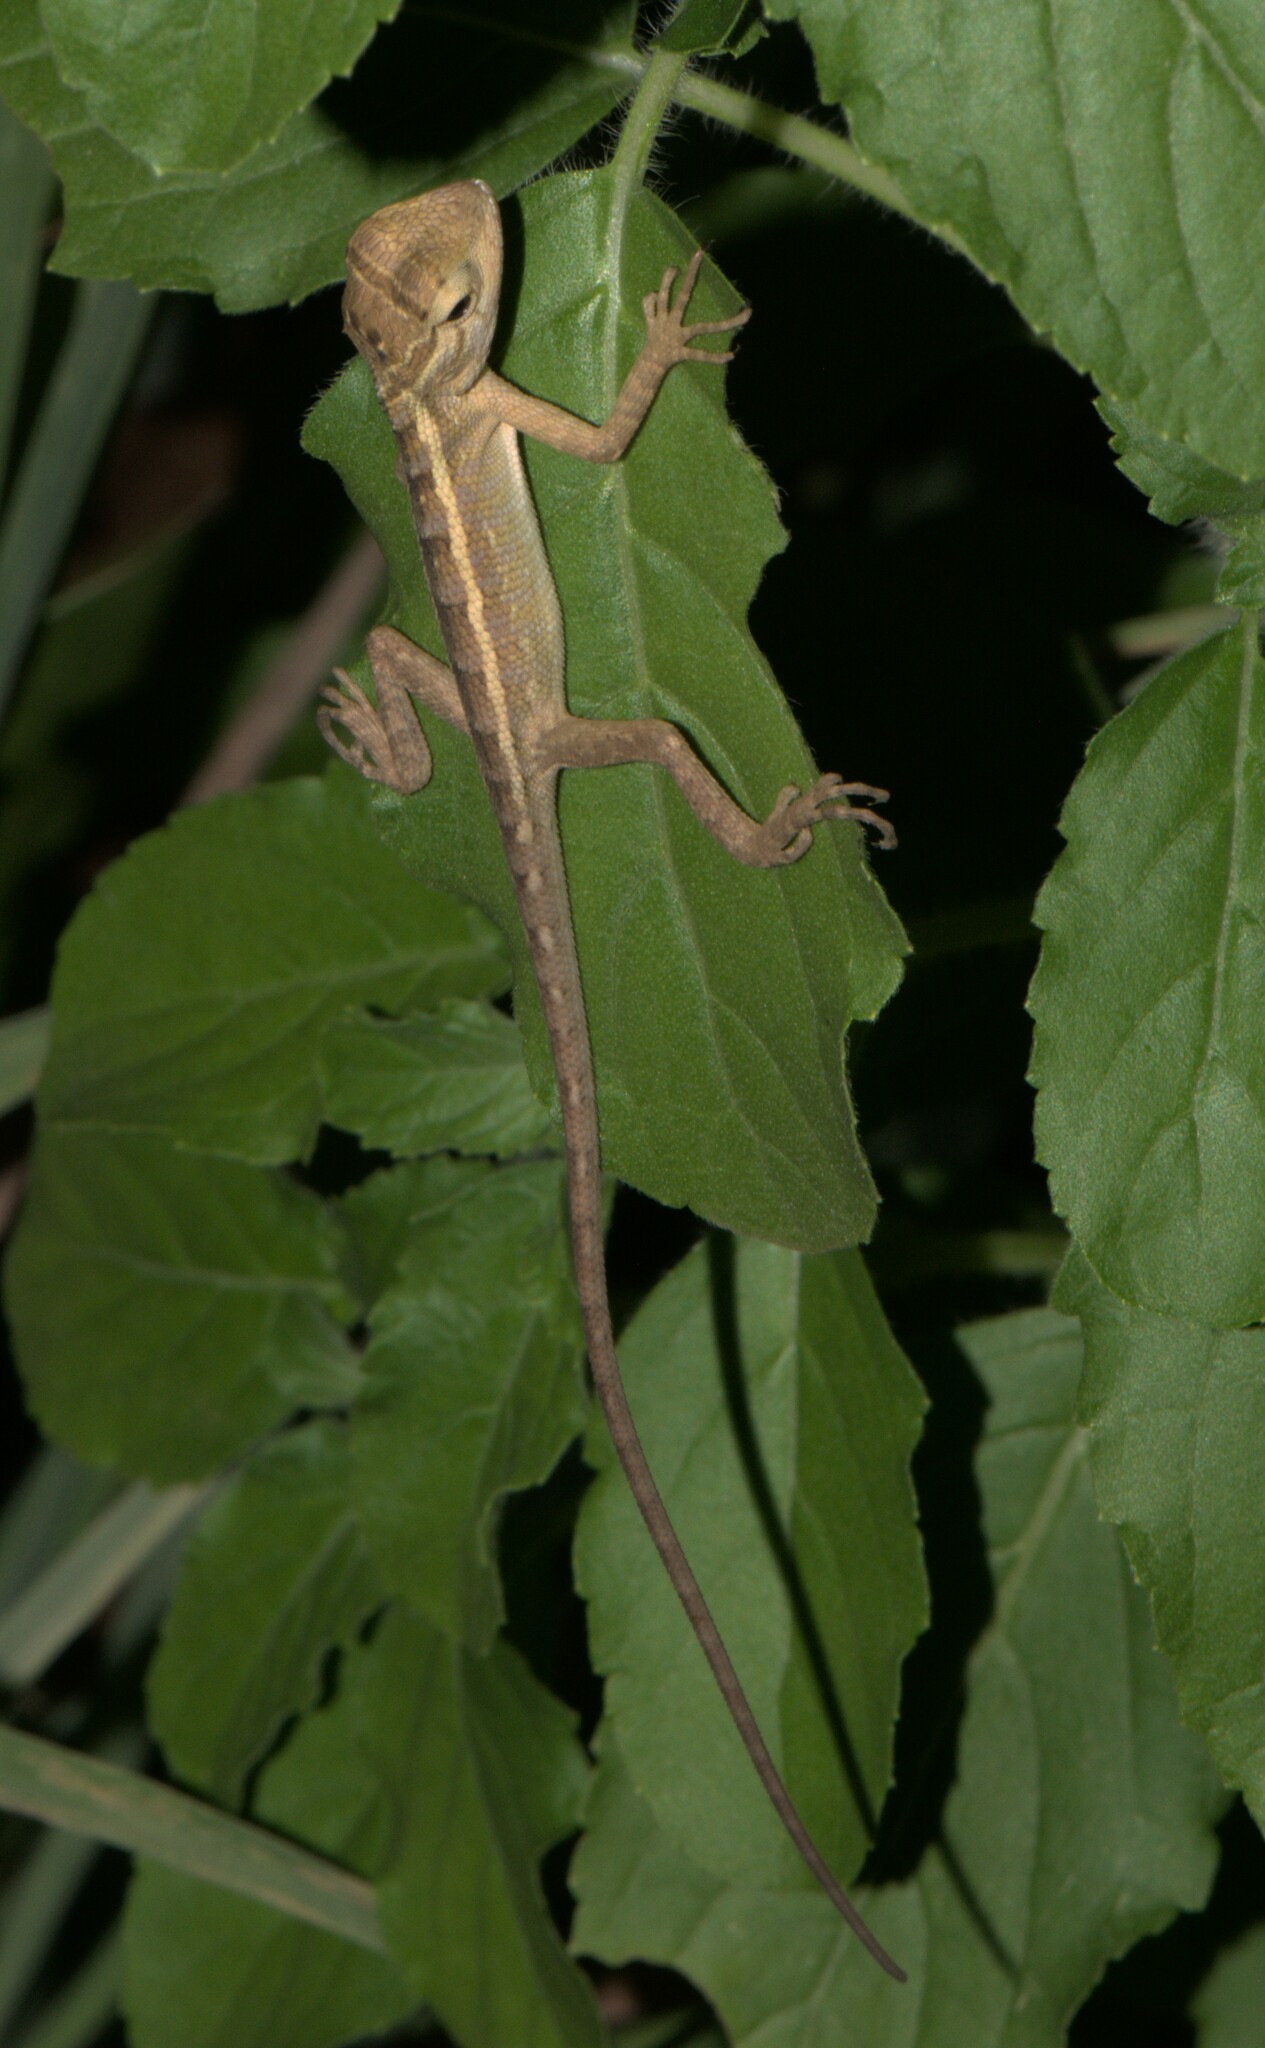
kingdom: Animalia
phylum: Chordata
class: Squamata
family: Agamidae
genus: Calotes
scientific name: Calotes versicolor
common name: Oriental garden lizard
